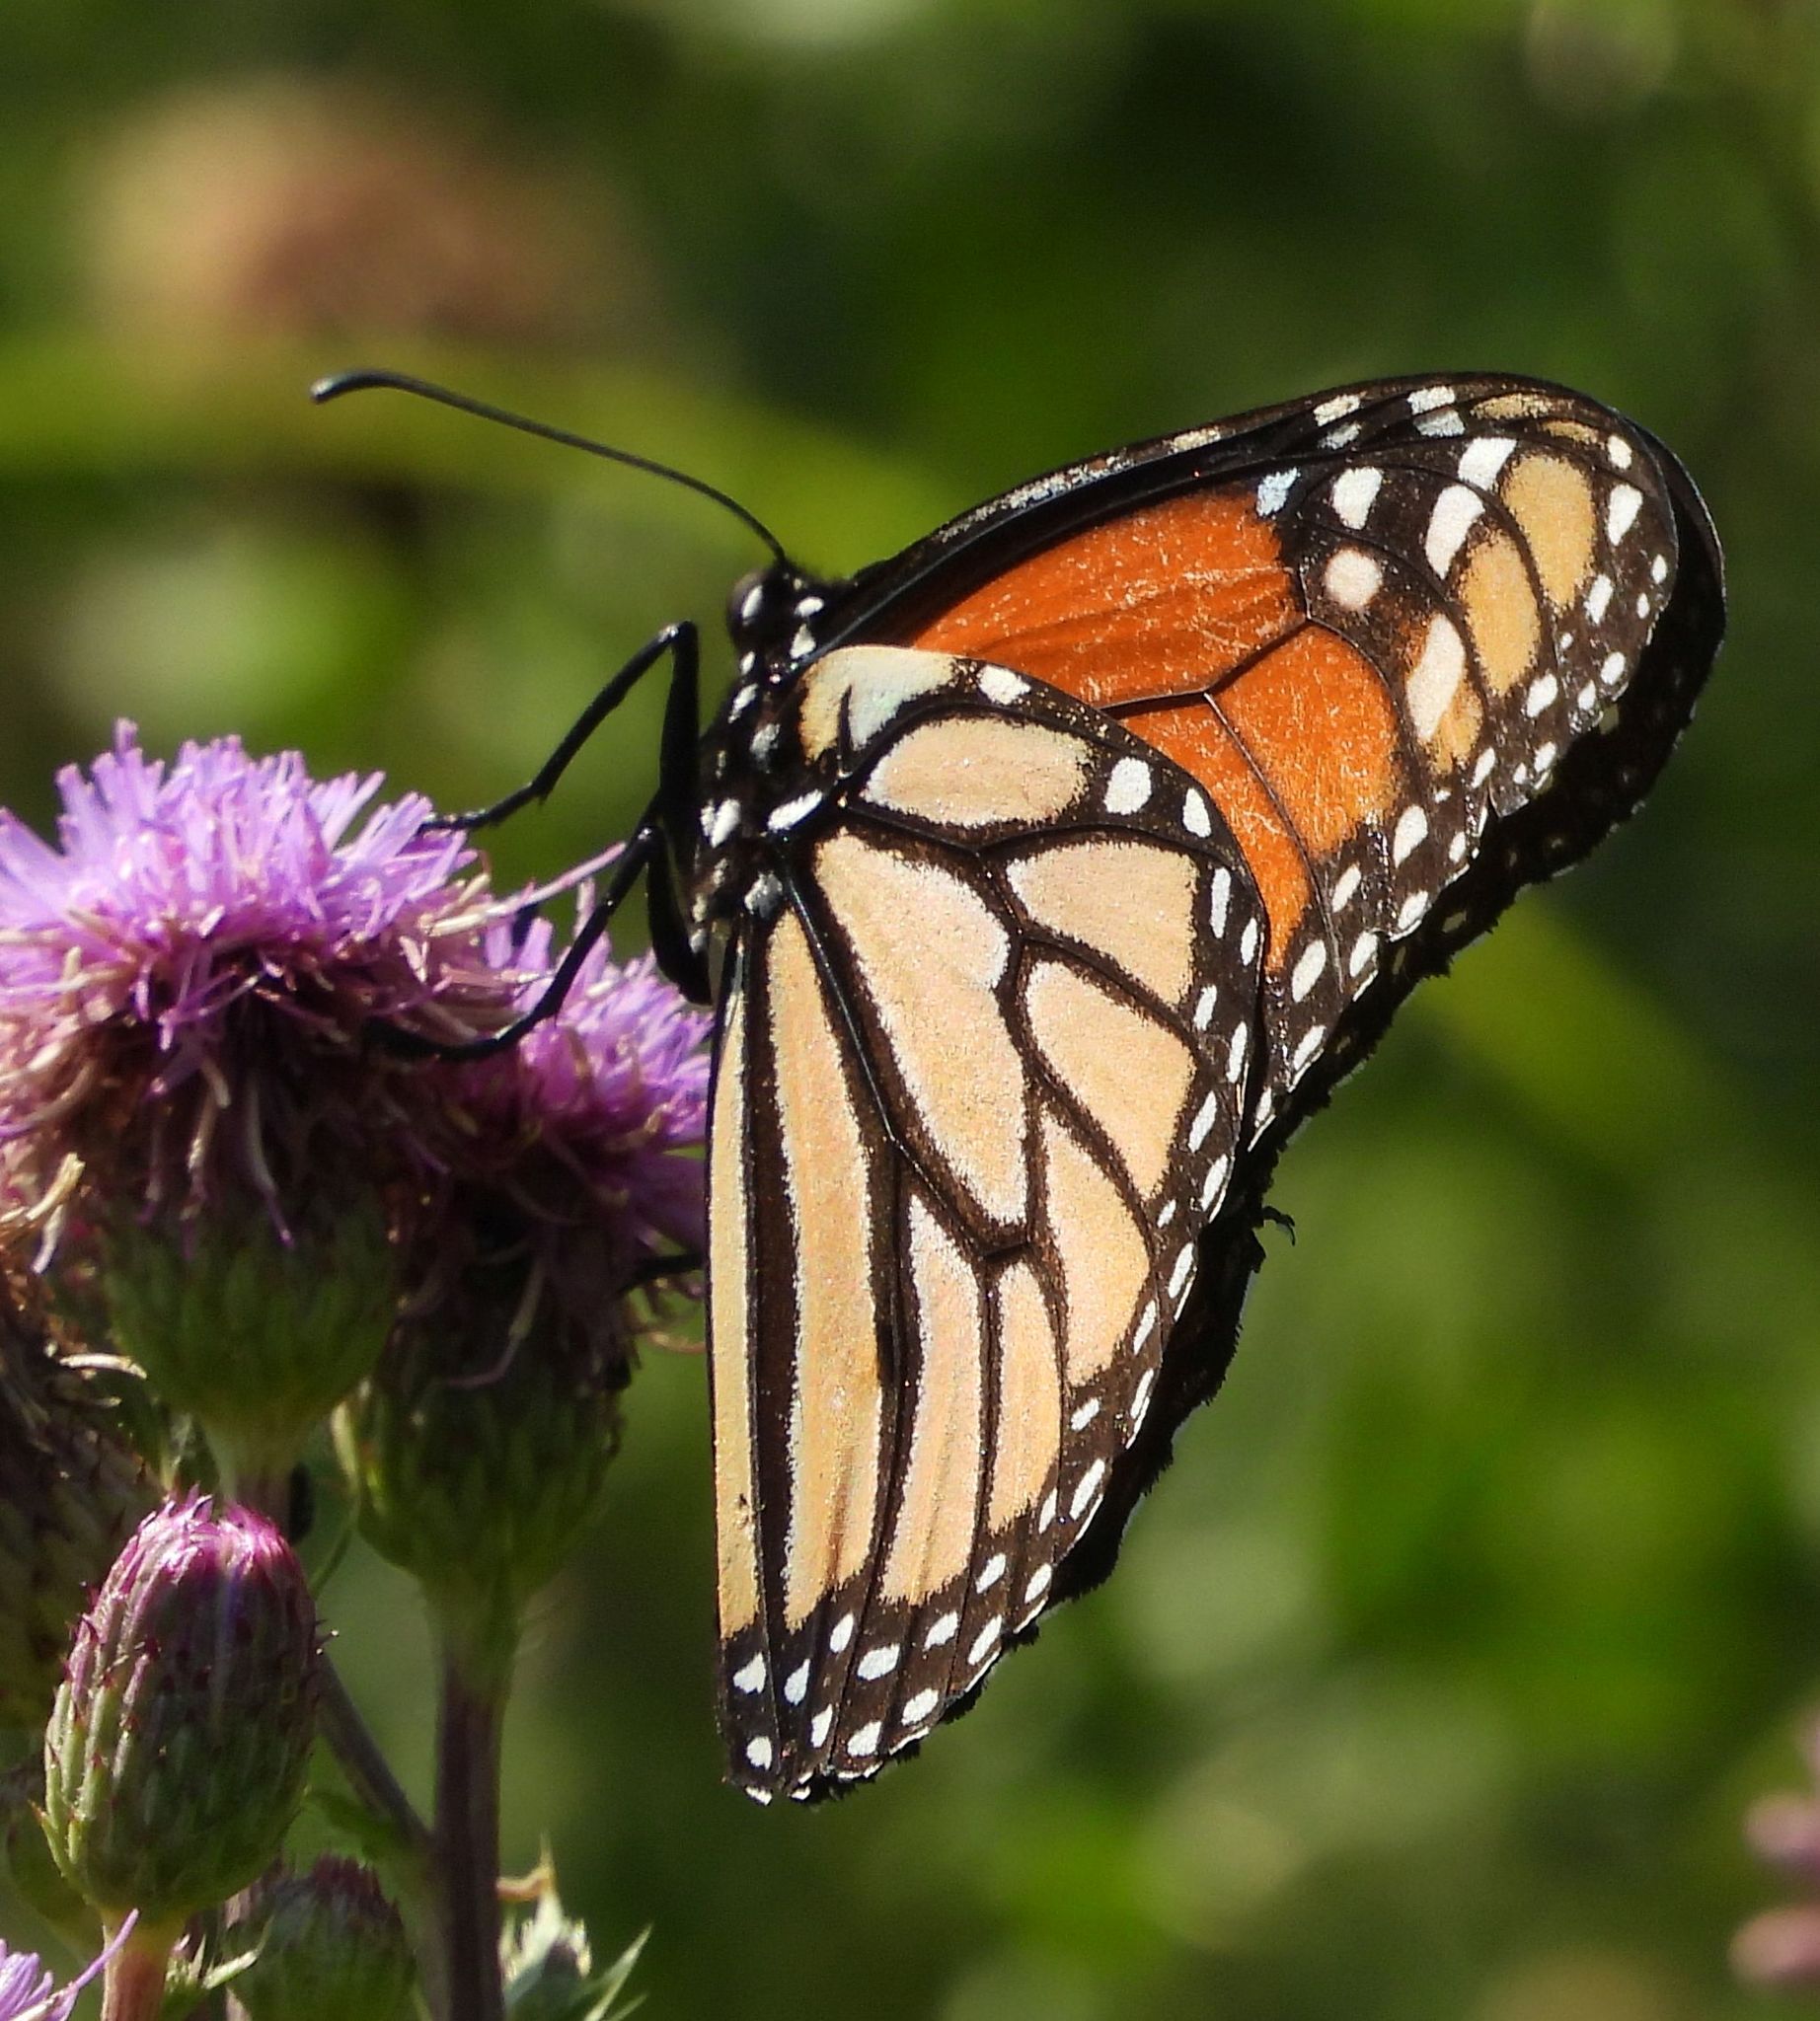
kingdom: Animalia
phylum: Arthropoda
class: Insecta
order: Lepidoptera
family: Nymphalidae
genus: Danaus
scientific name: Danaus plexippus
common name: Monarch
